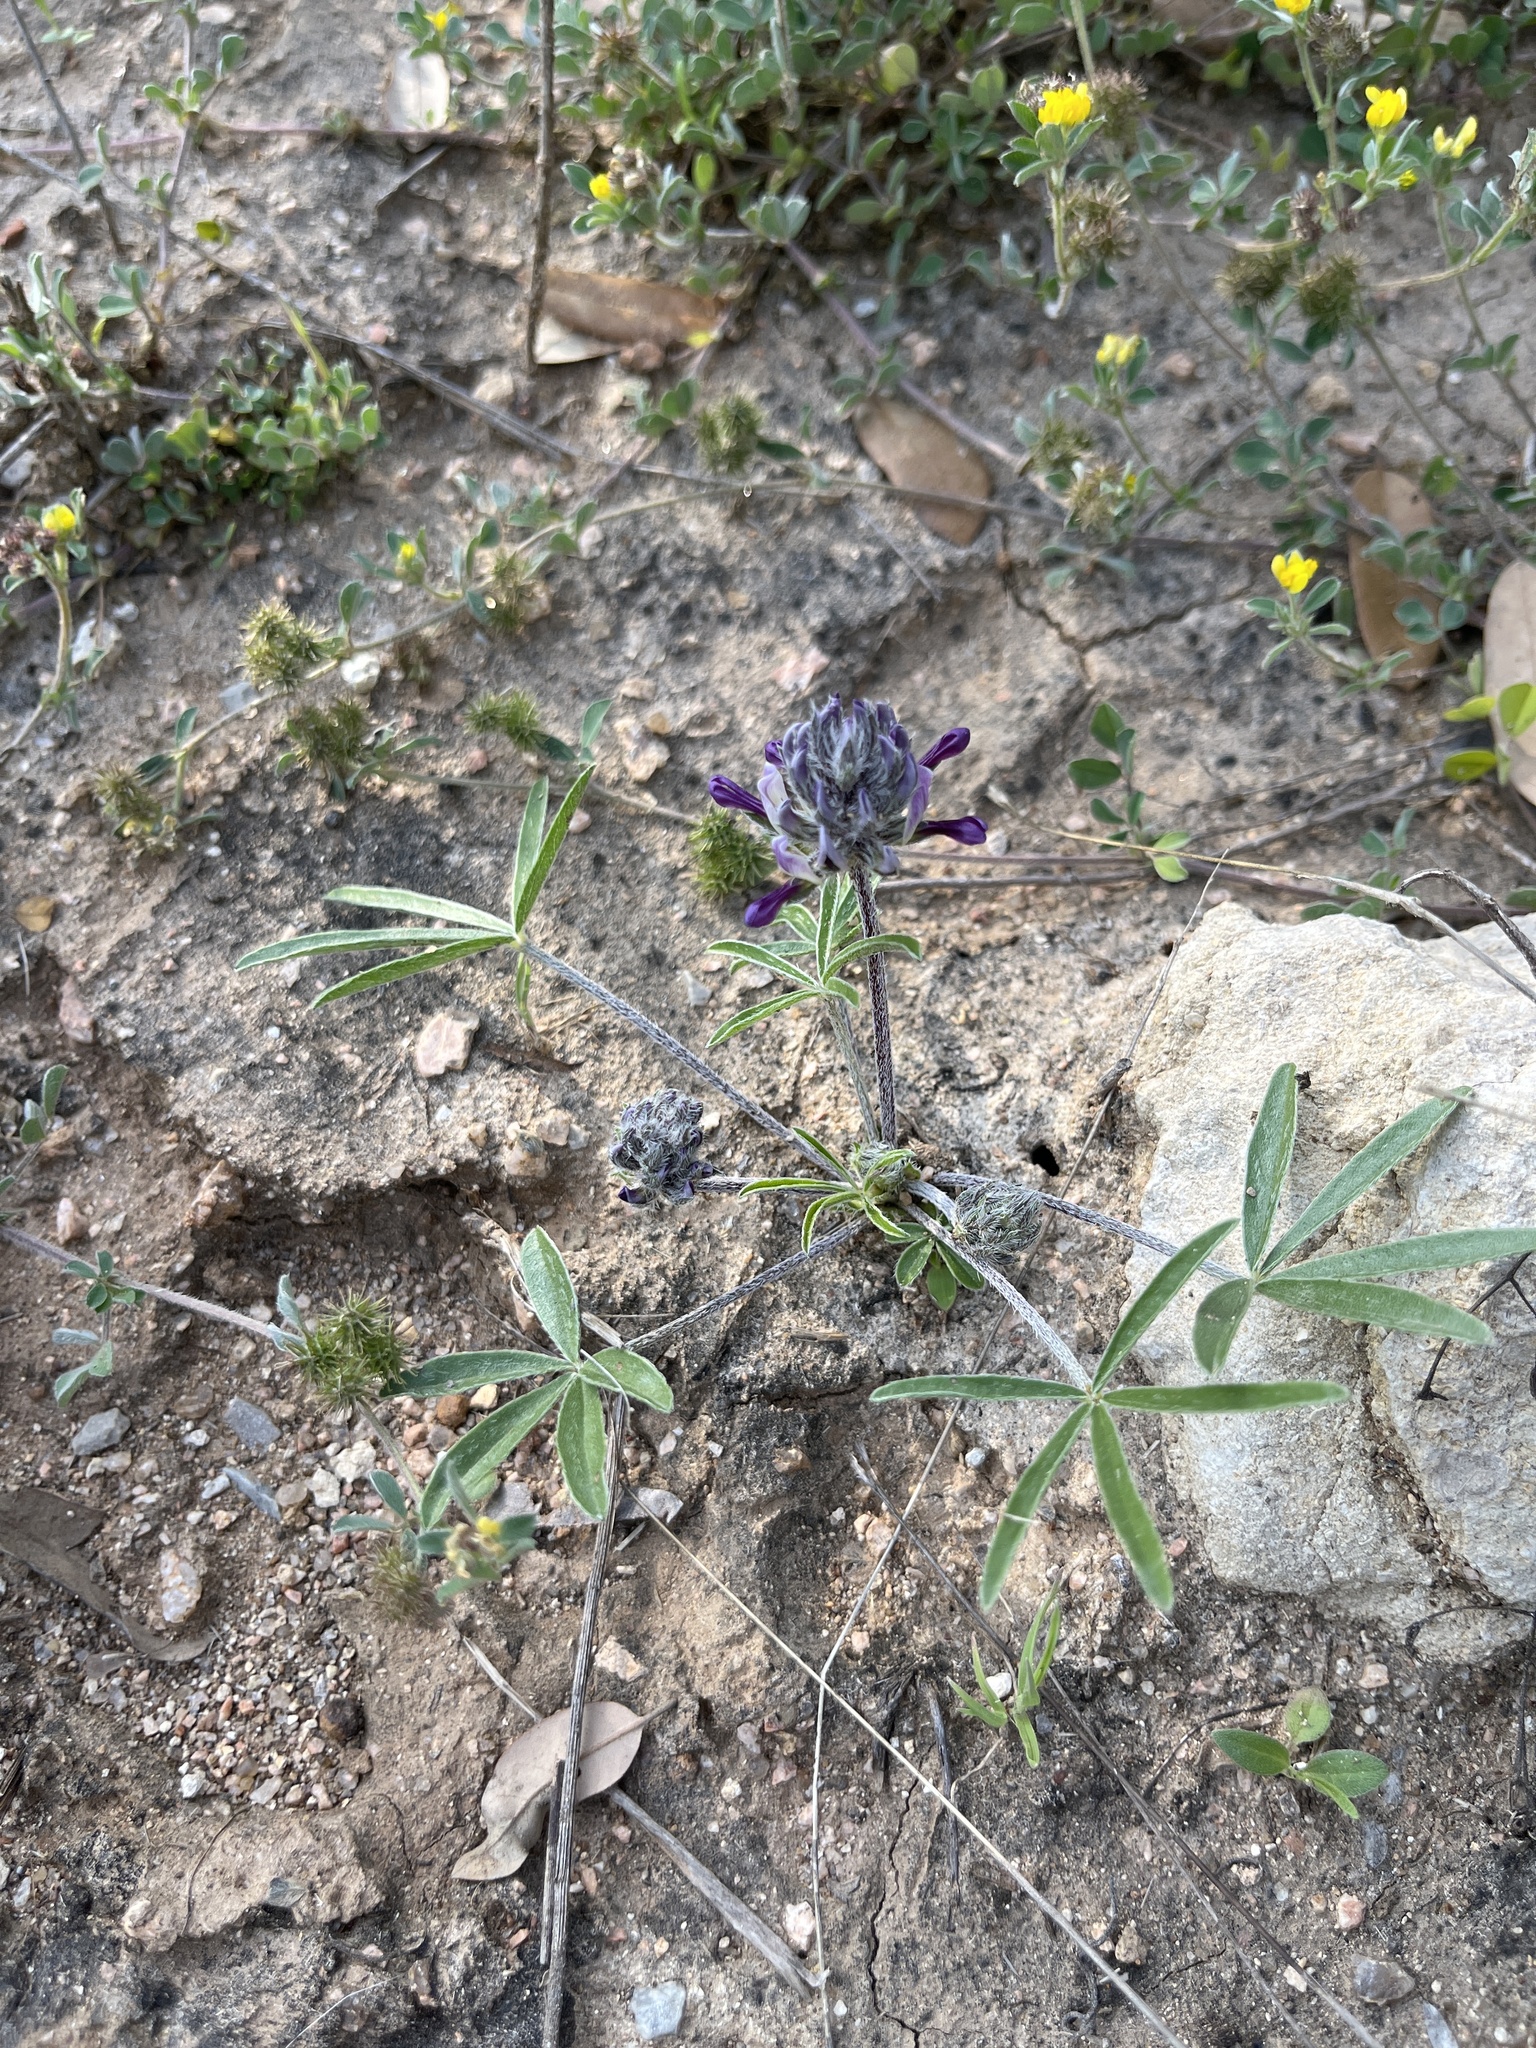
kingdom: Plantae
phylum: Tracheophyta
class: Magnoliopsida
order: Fabales
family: Fabaceae
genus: Pediomelum
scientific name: Pediomelum hypogaeum
